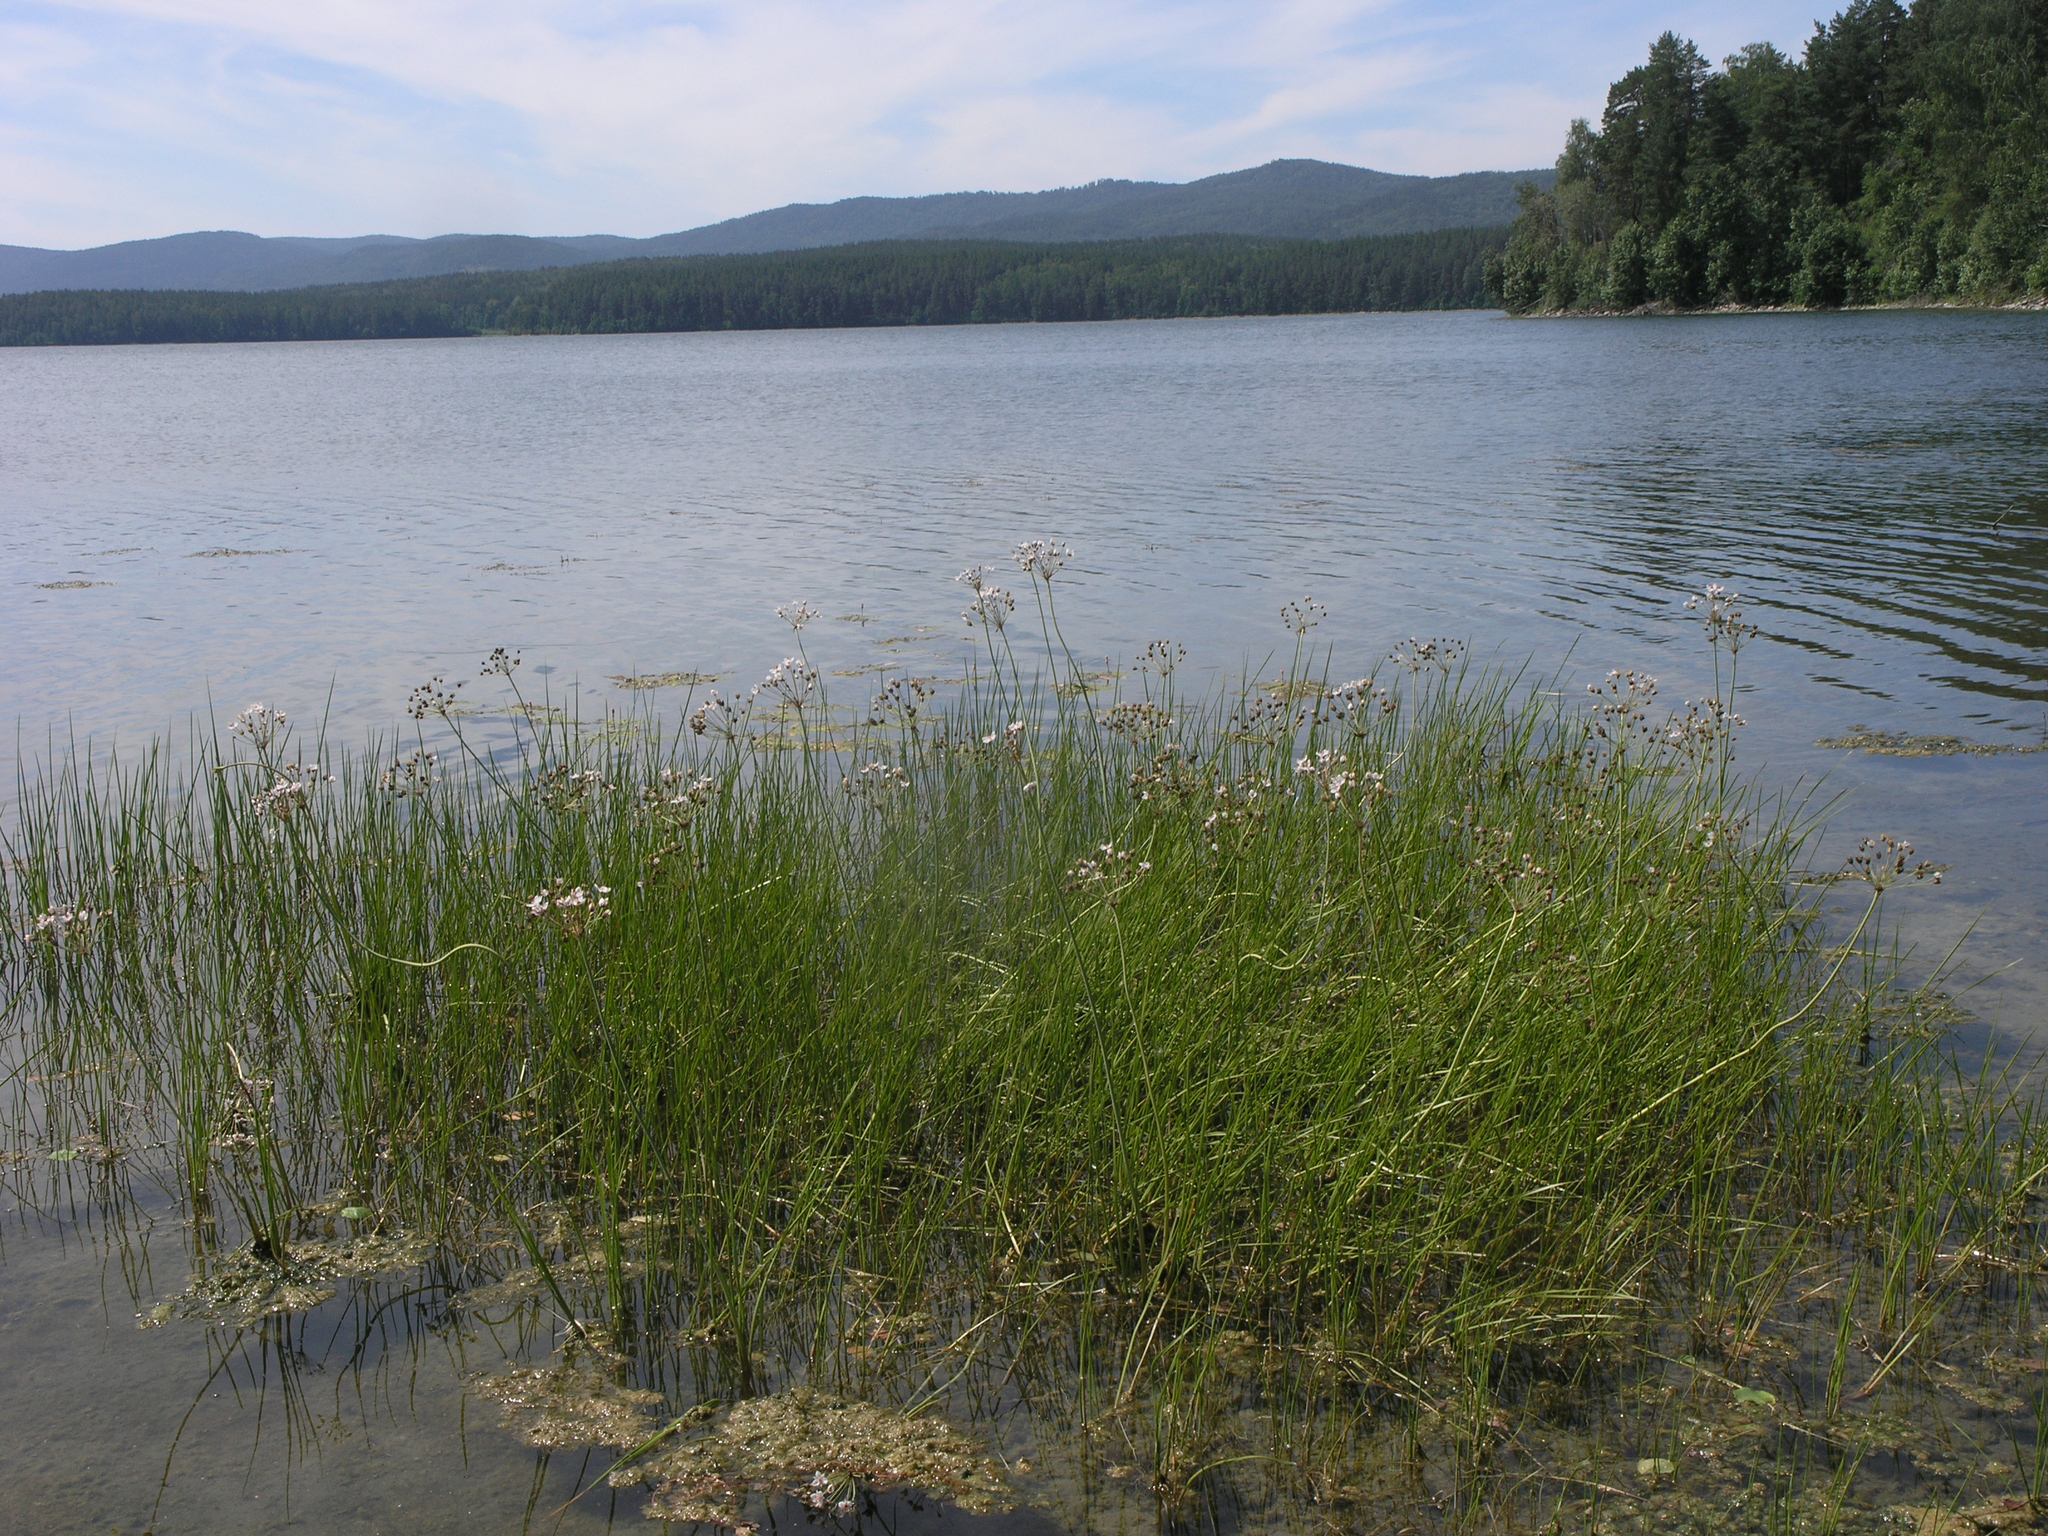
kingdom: Plantae
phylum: Tracheophyta
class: Liliopsida
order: Alismatales
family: Butomaceae
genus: Butomus
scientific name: Butomus umbellatus
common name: Flowering-rush
